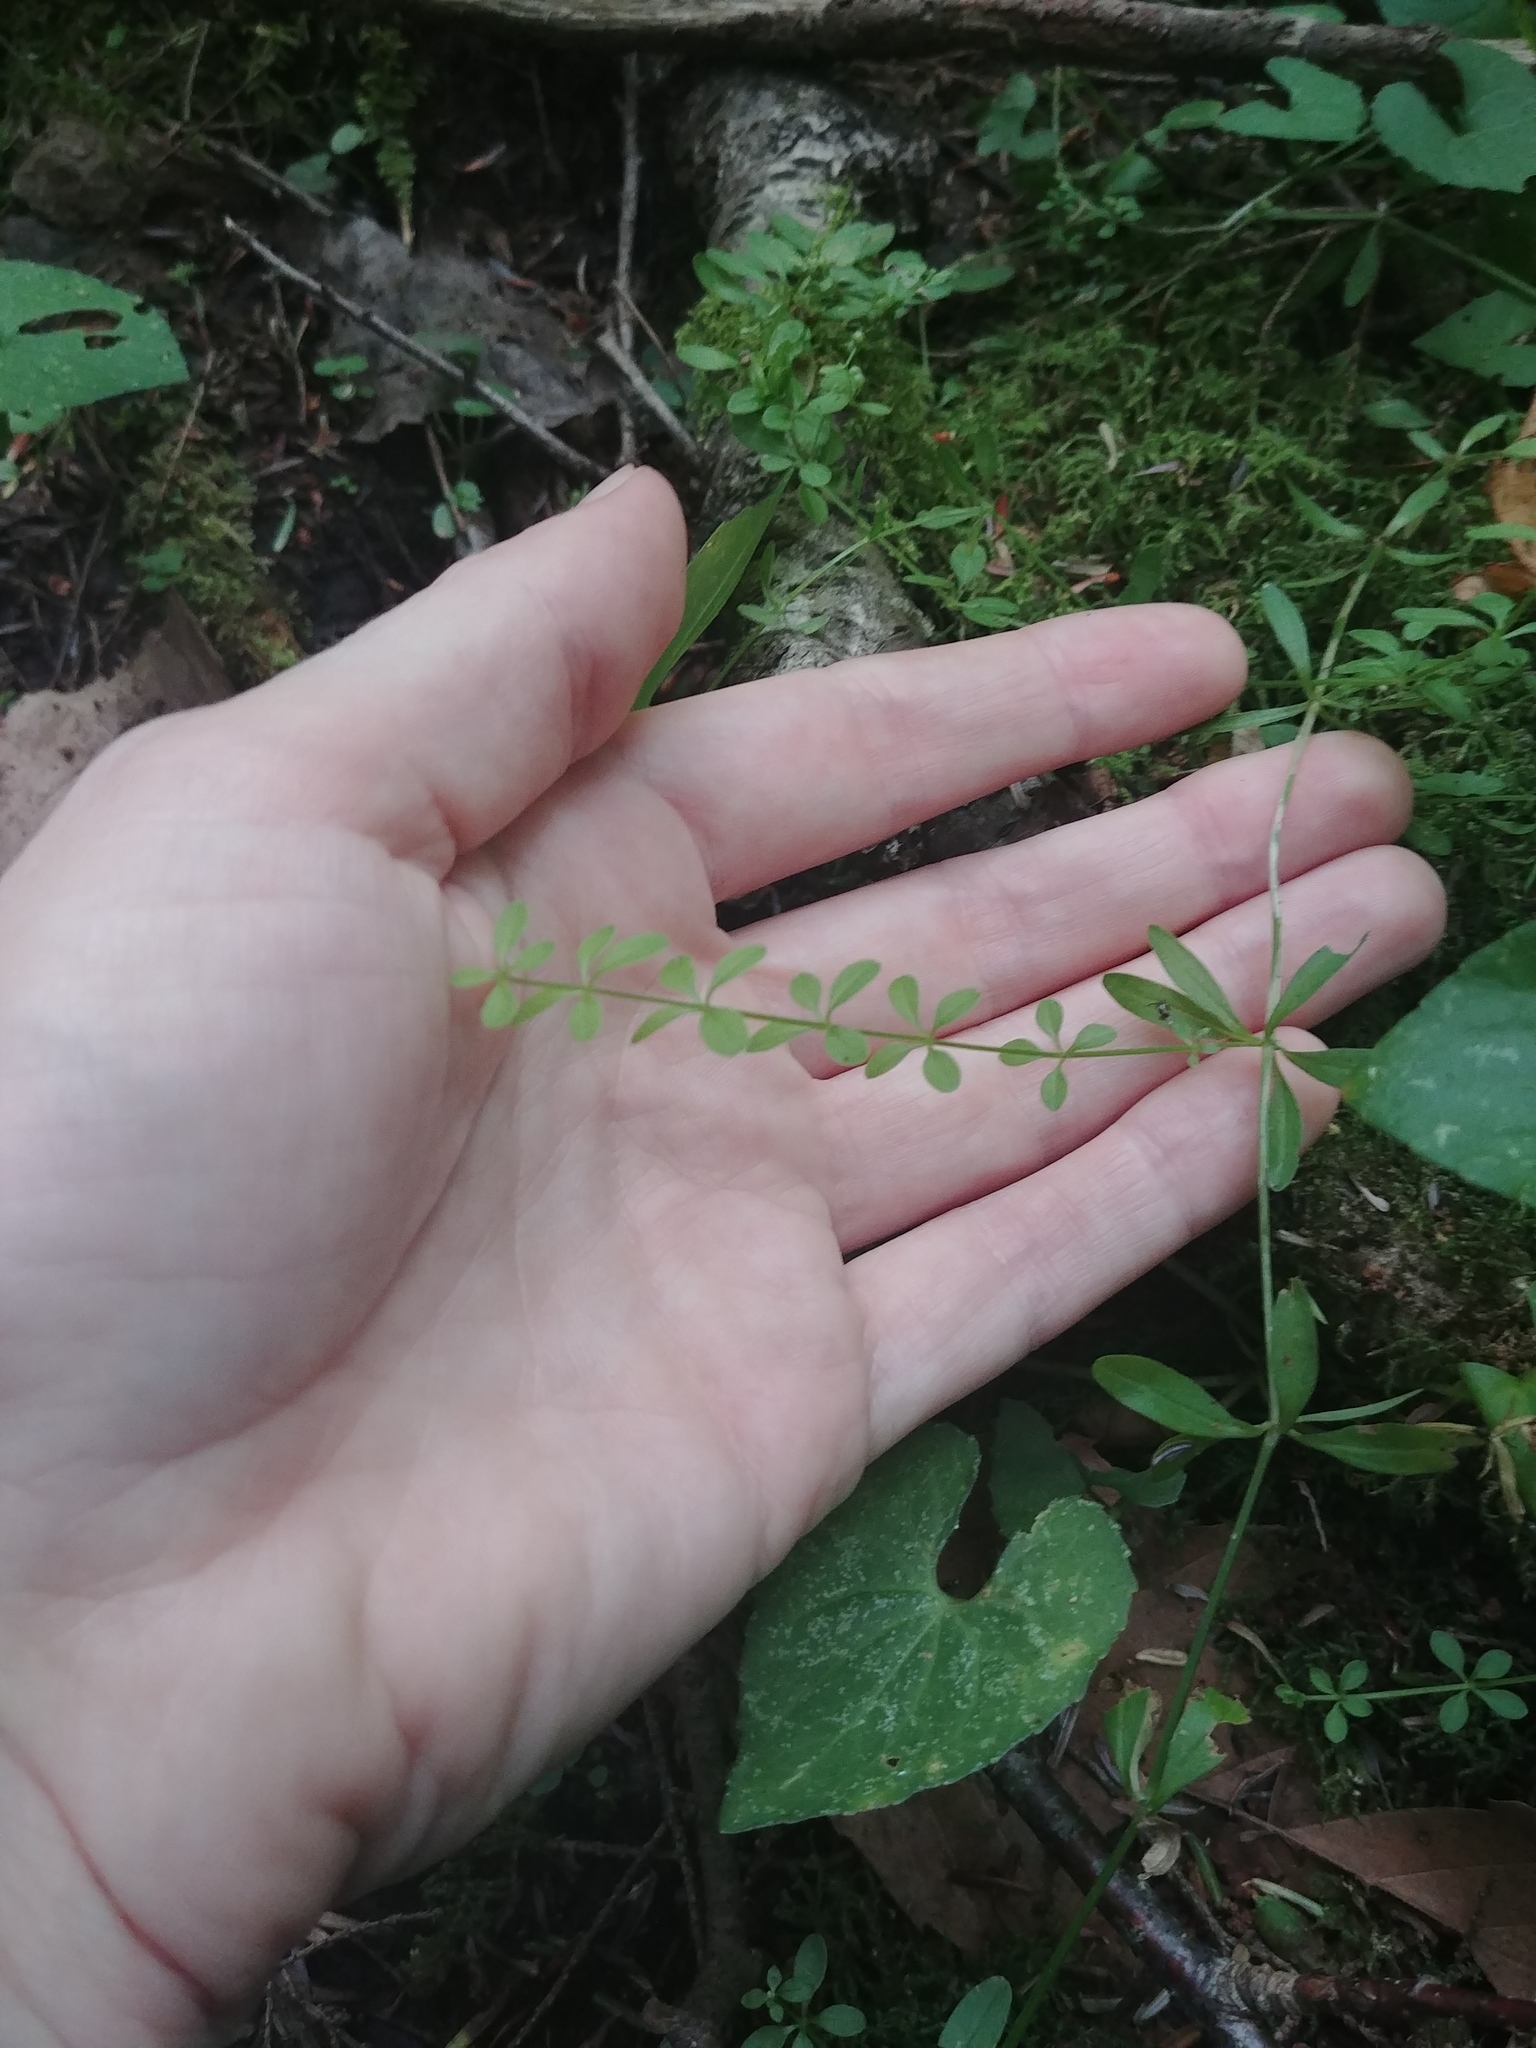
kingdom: Plantae
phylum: Tracheophyta
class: Magnoliopsida
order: Gentianales
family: Rubiaceae
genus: Galium
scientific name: Galium palustre
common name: Common marsh-bedstraw
